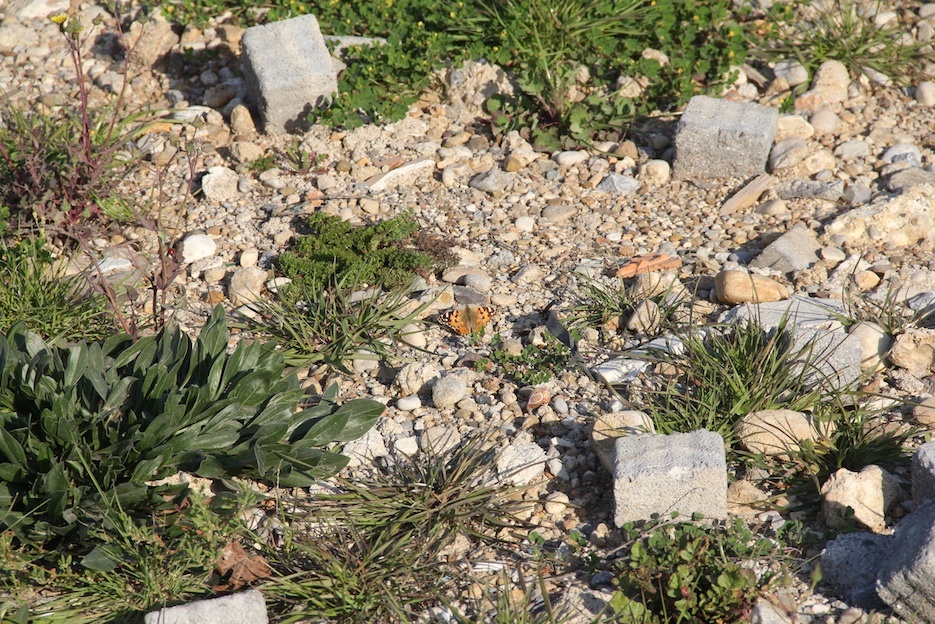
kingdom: Animalia
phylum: Arthropoda
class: Insecta
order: Lepidoptera
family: Nymphalidae
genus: Vanessa
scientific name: Vanessa cardui
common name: Painted lady
